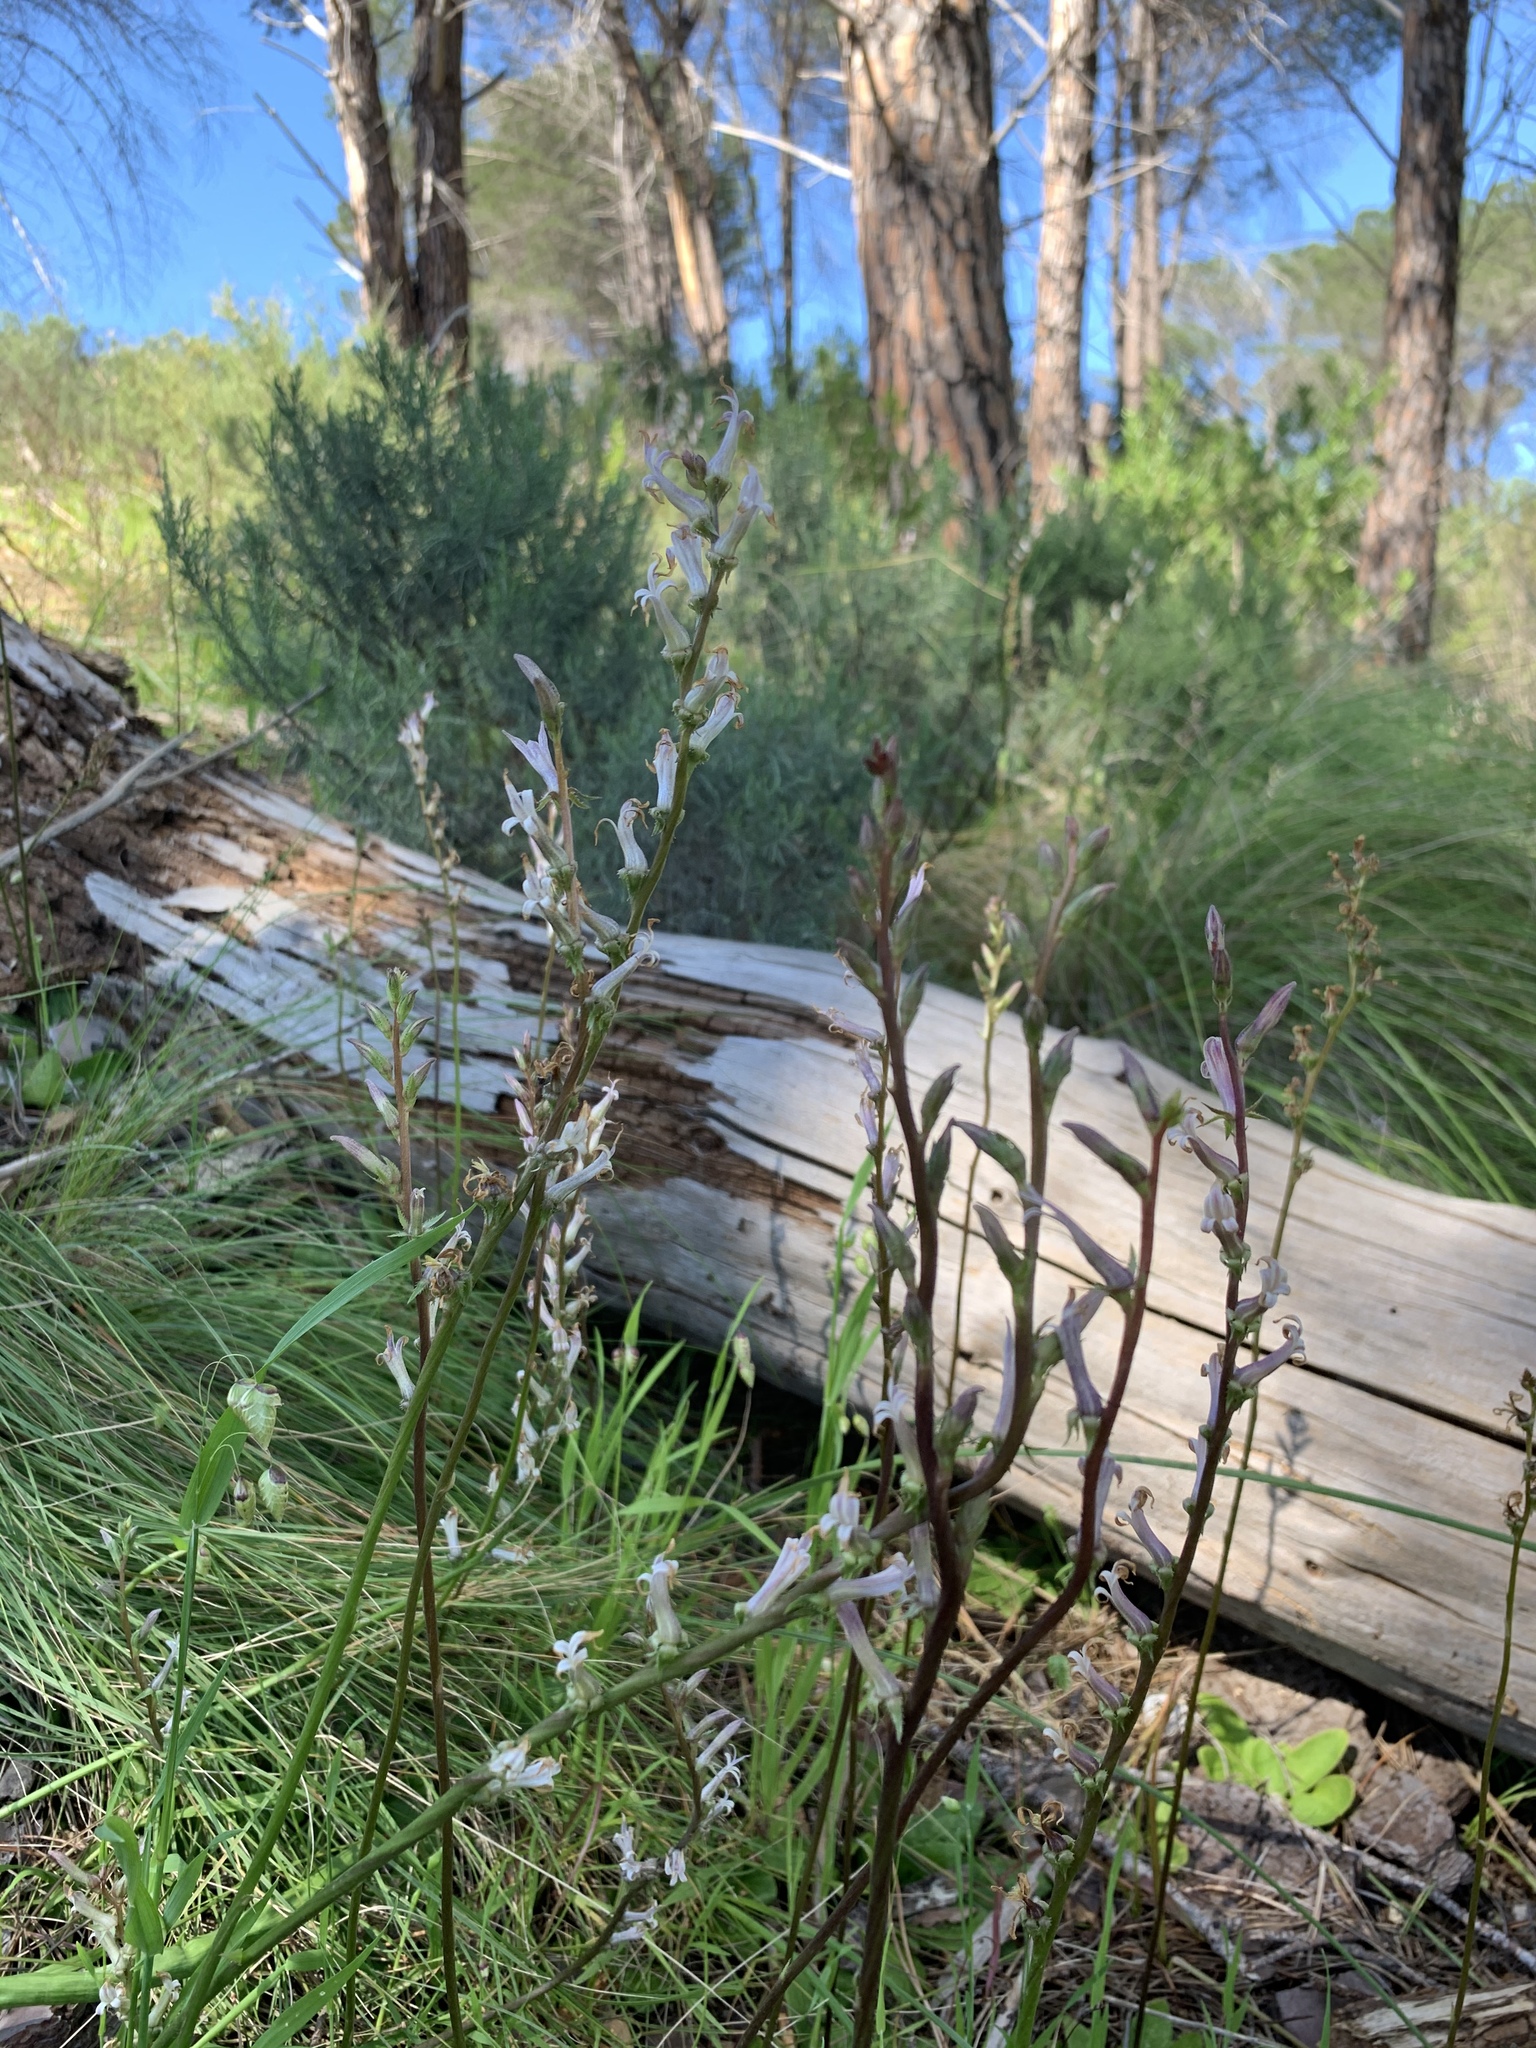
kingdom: Plantae
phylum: Tracheophyta
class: Magnoliopsida
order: Asterales
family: Campanulaceae
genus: Cyphia
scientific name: Cyphia phyteuma
